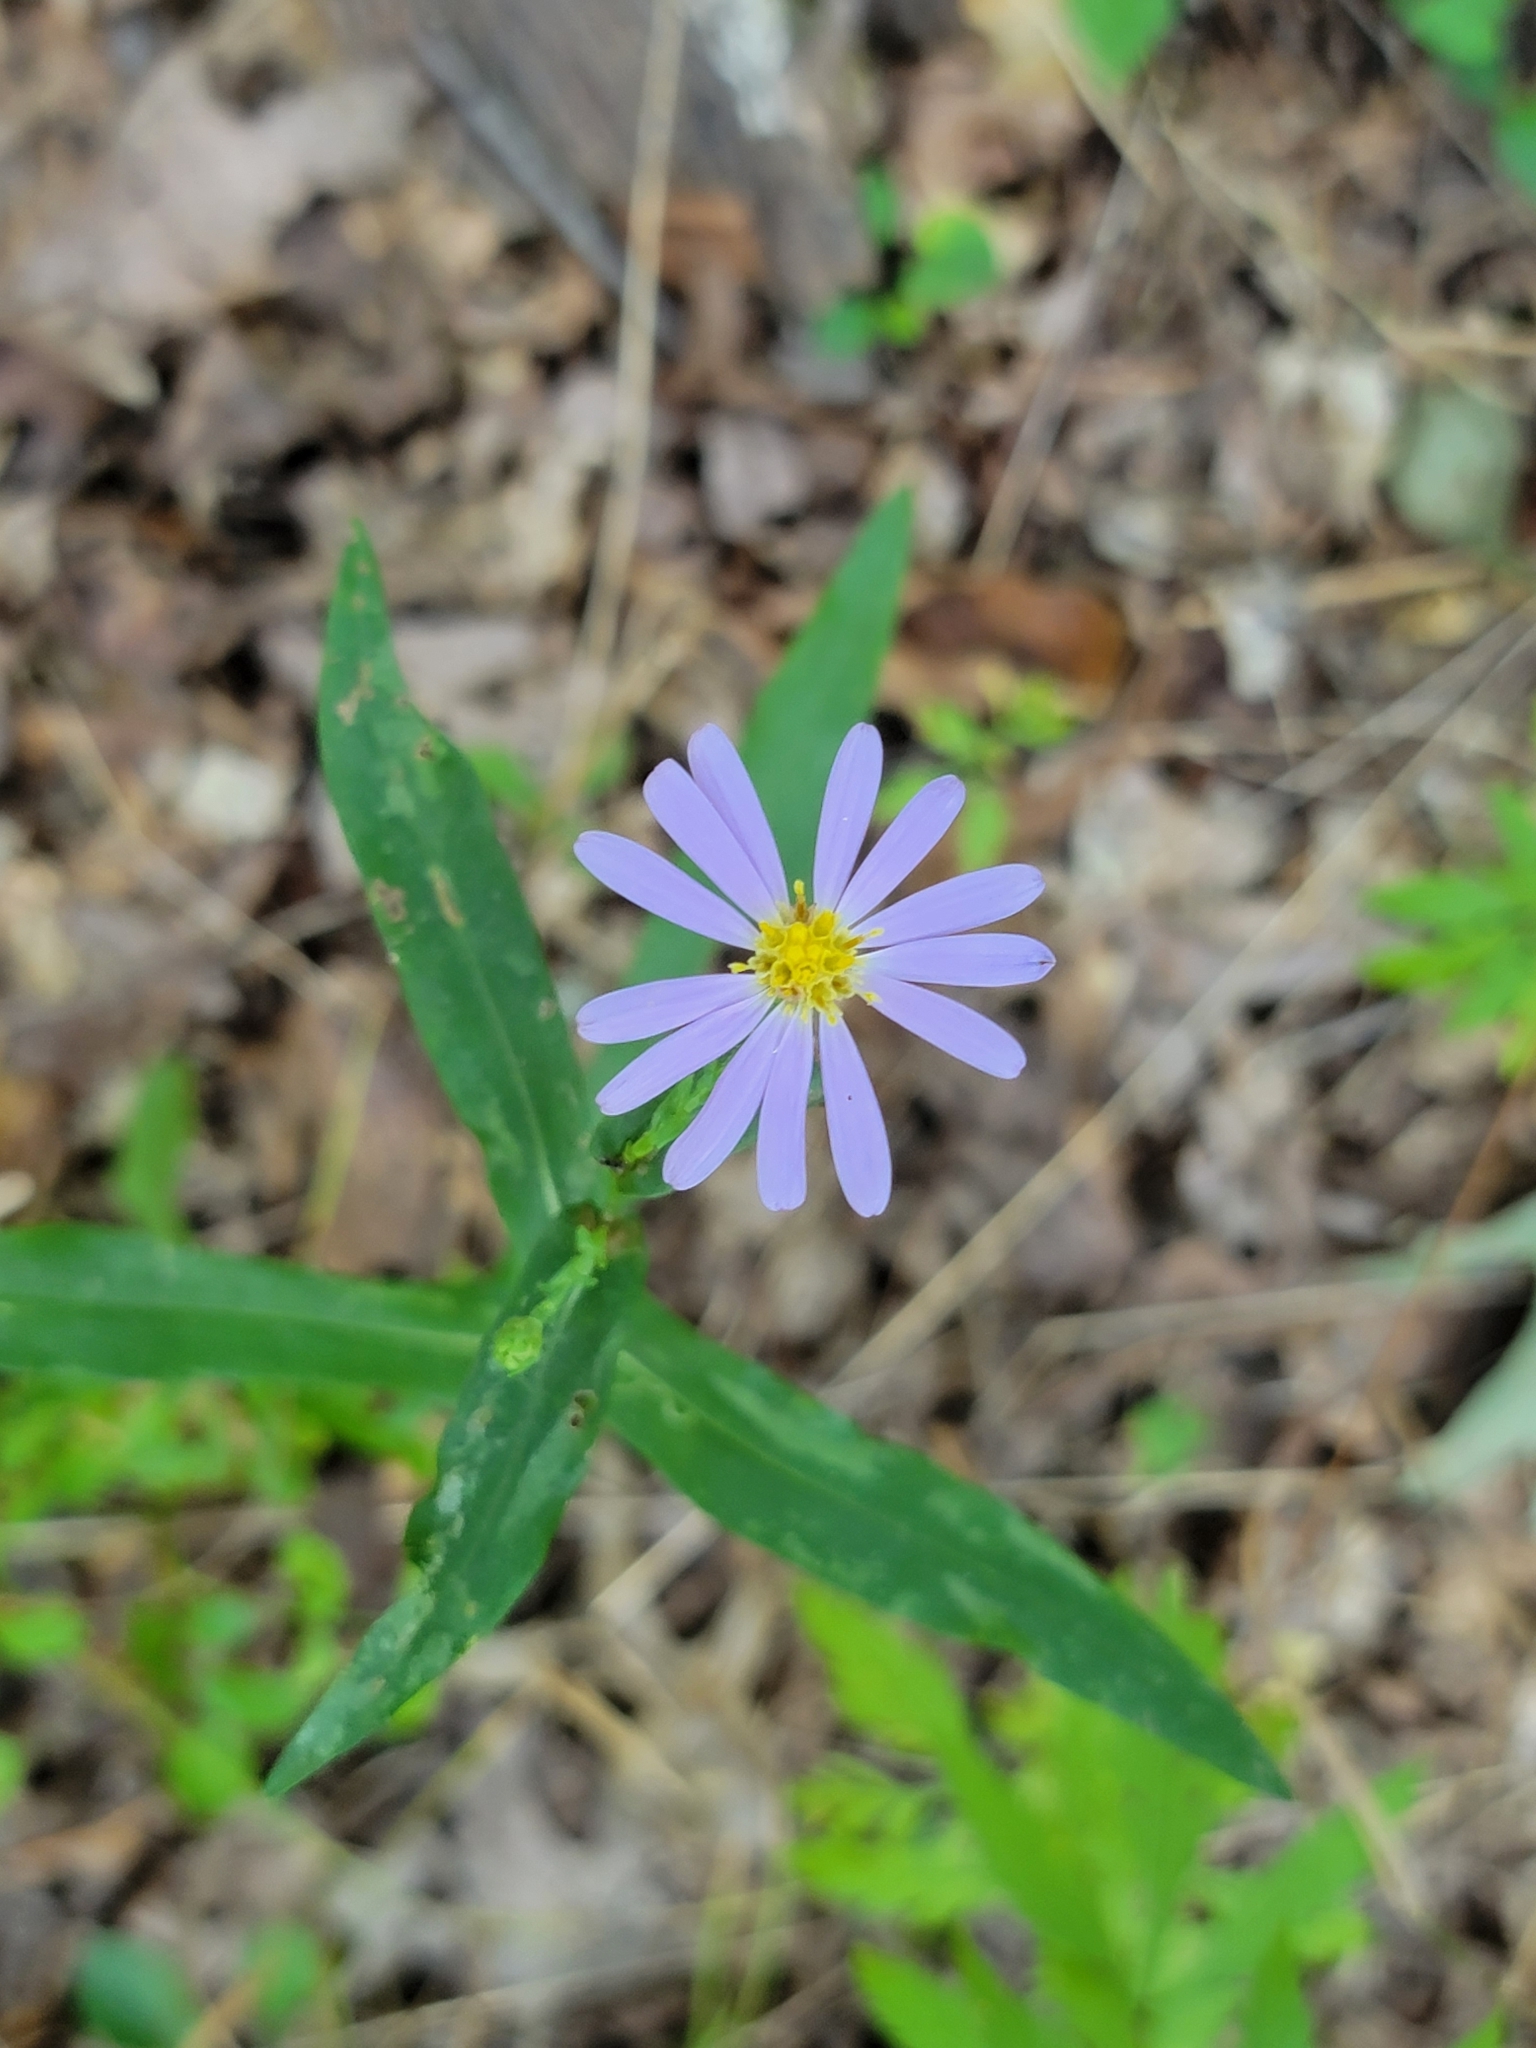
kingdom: Plantae
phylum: Tracheophyta
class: Magnoliopsida
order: Asterales
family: Asteraceae
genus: Symphyotrichum
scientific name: Symphyotrichum laeve
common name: Glaucous aster
